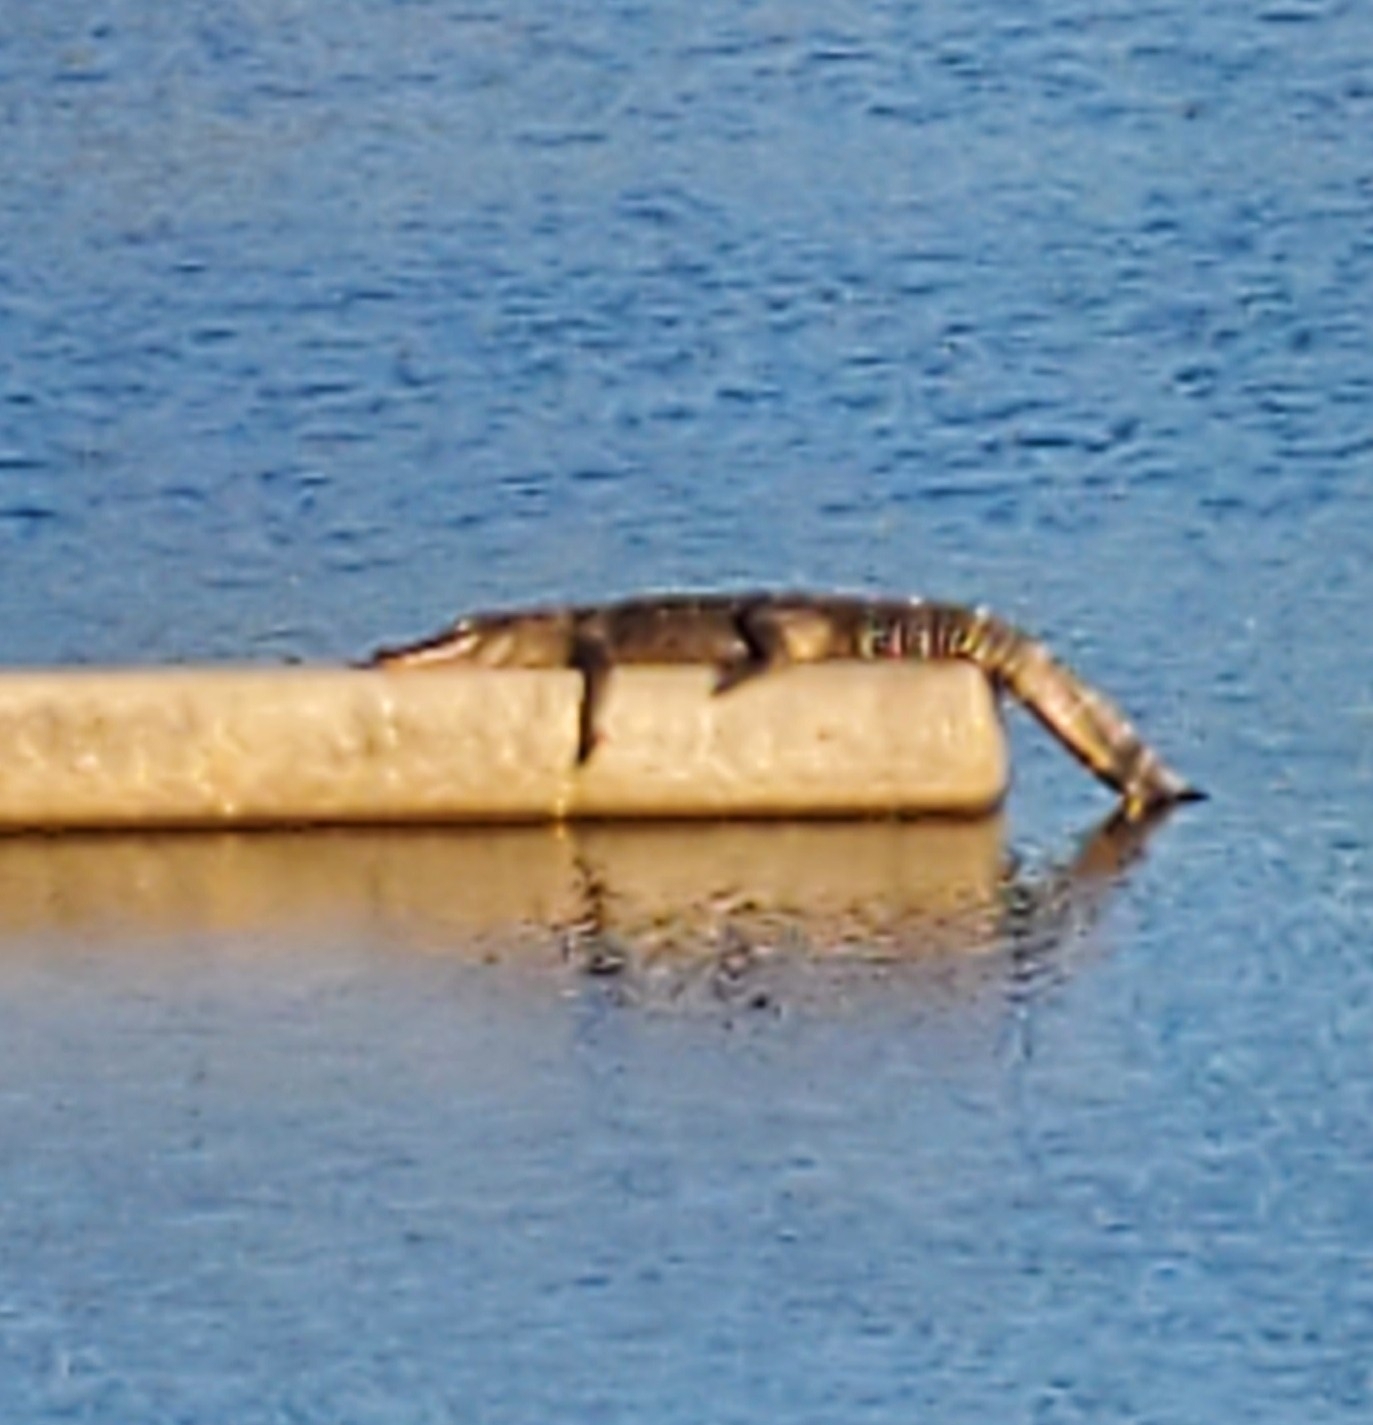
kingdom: Animalia
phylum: Chordata
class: Crocodylia
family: Alligatoridae
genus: Alligator
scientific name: Alligator mississippiensis
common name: American alligator
